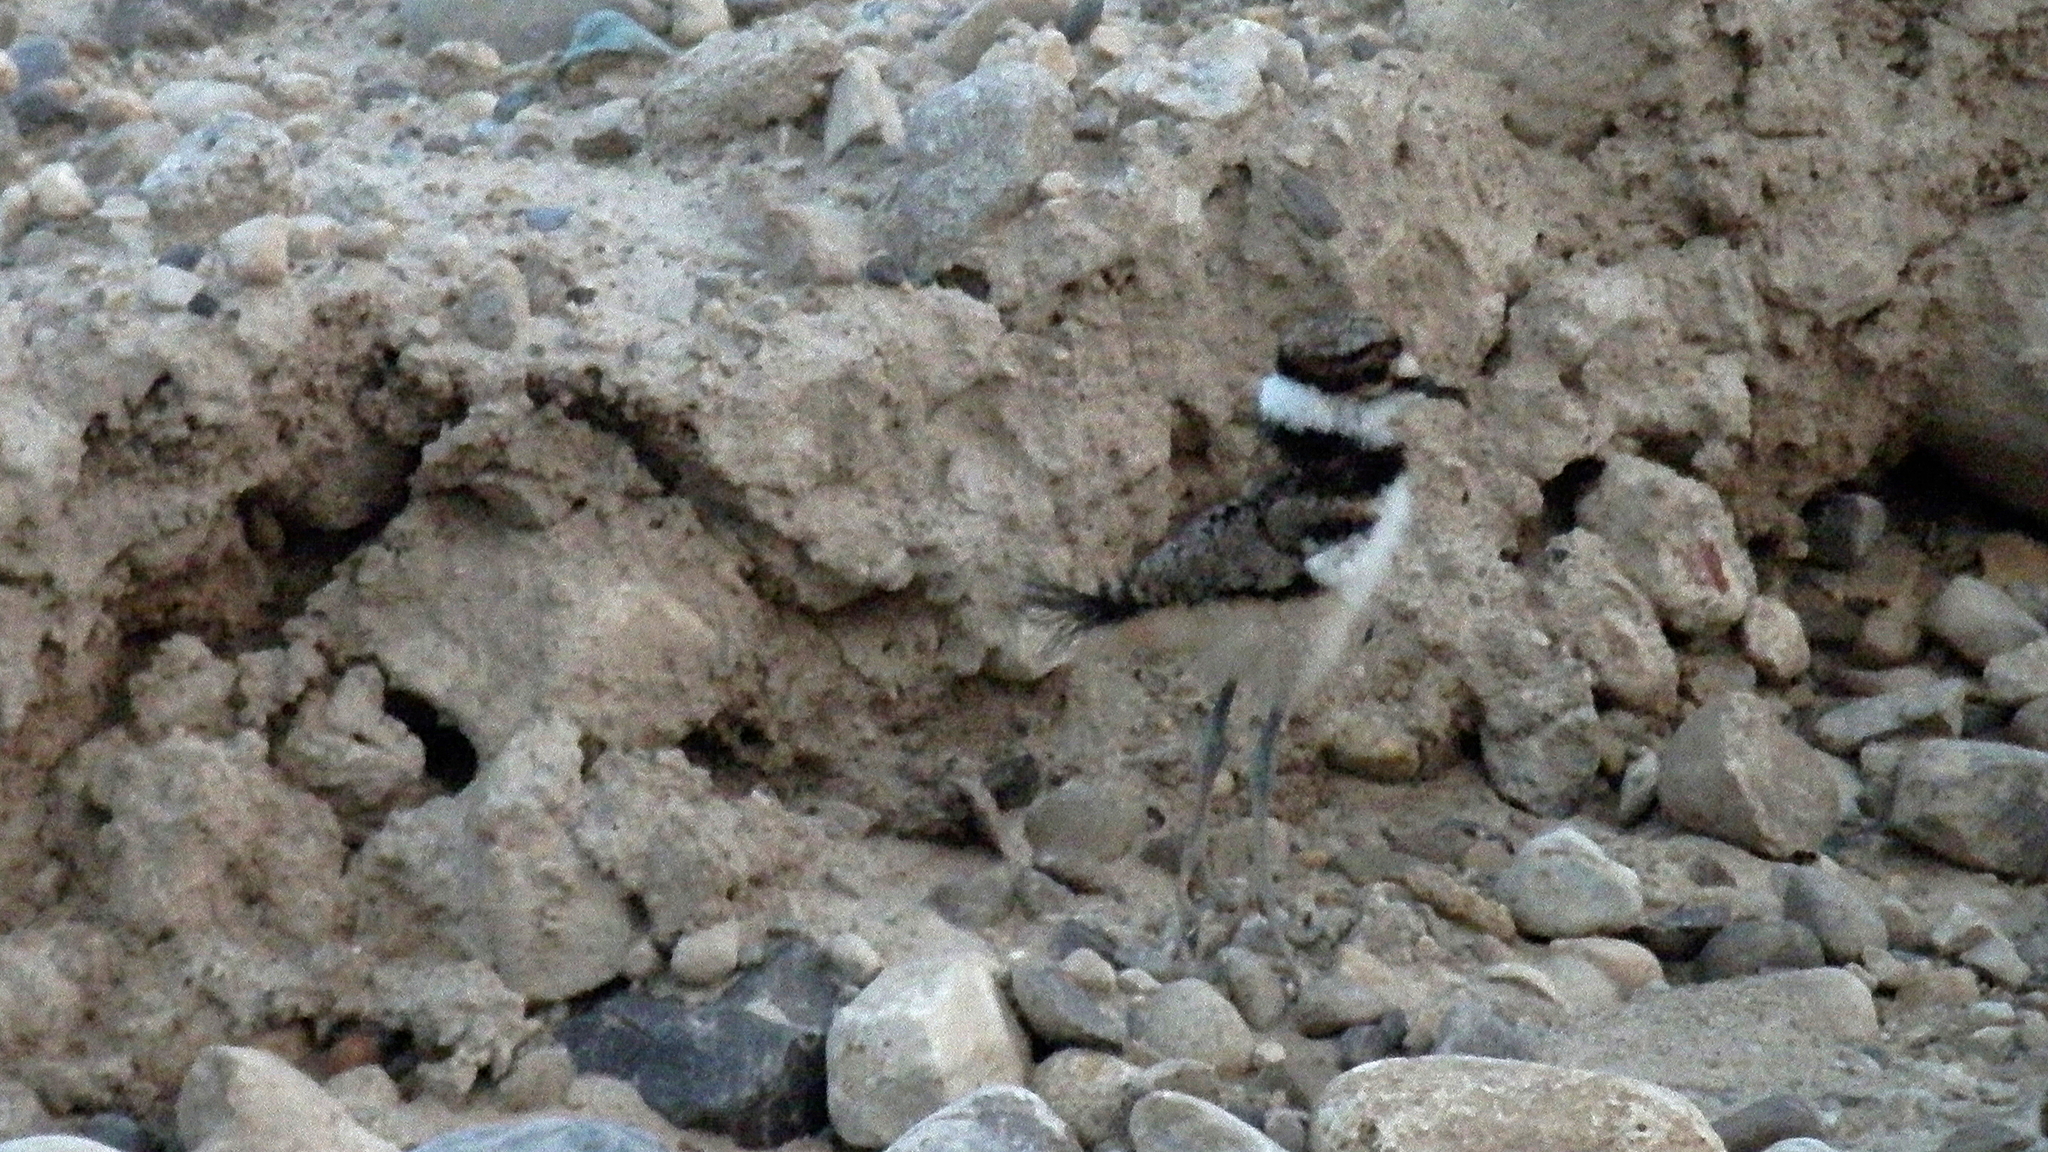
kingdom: Animalia
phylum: Chordata
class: Aves
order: Charadriiformes
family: Charadriidae
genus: Charadrius
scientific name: Charadrius vociferus
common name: Killdeer
